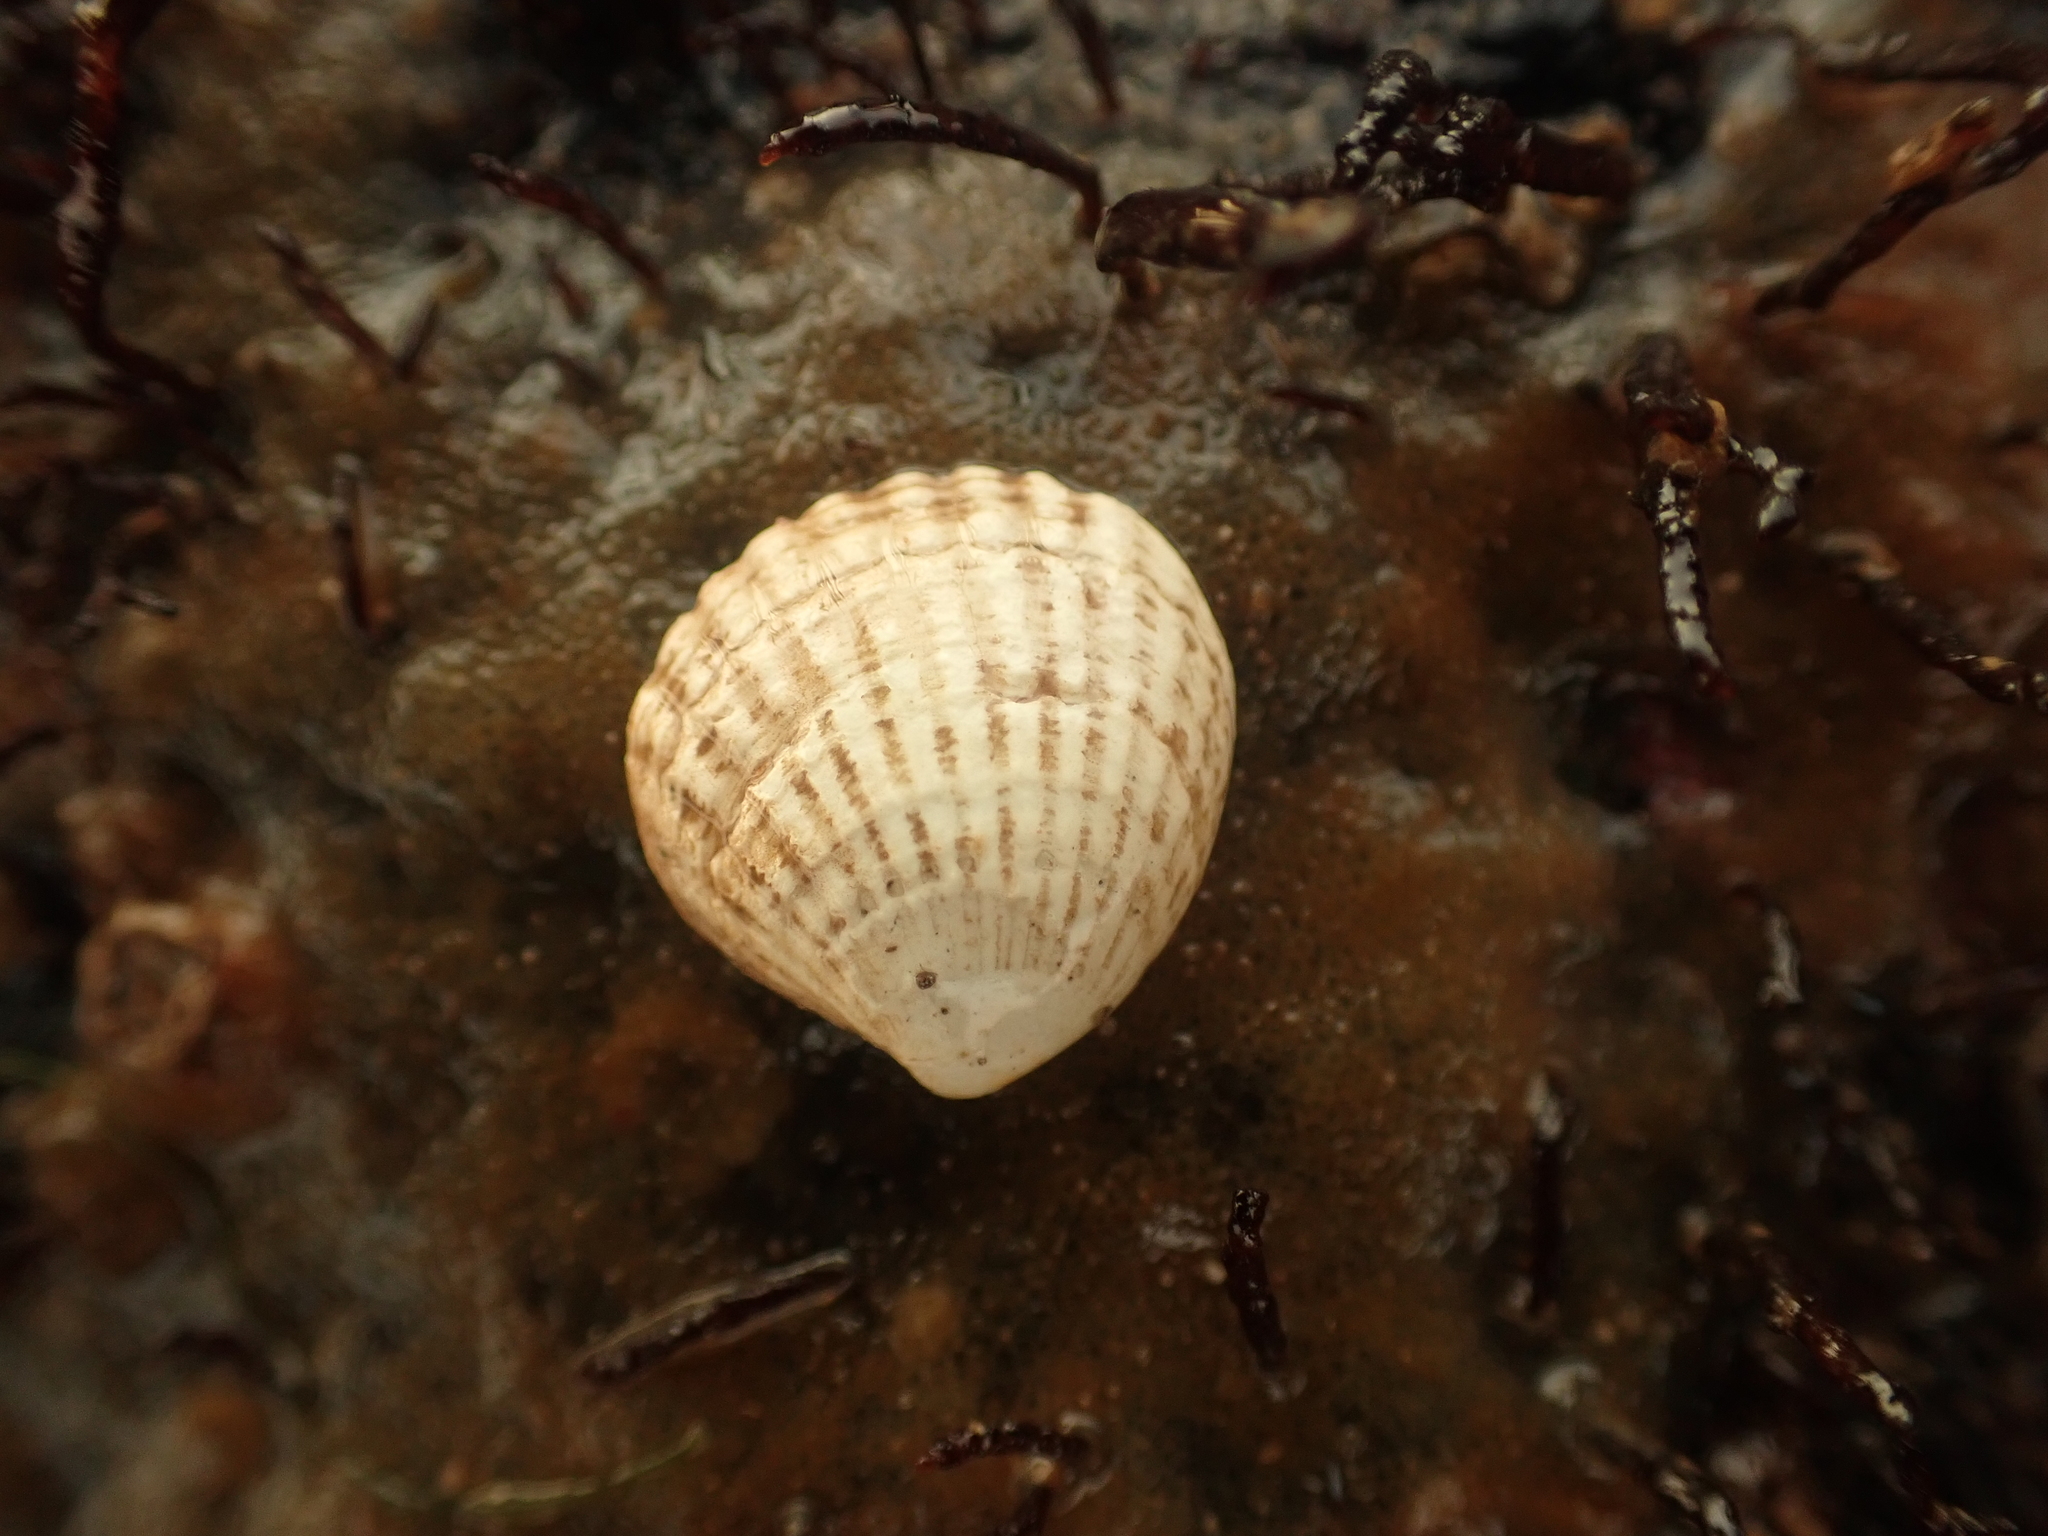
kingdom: Animalia
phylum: Mollusca
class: Bivalvia
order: Carditida
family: Carditidae
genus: Cyclocardia
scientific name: Cyclocardia borealis
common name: Northern cyclocardia
